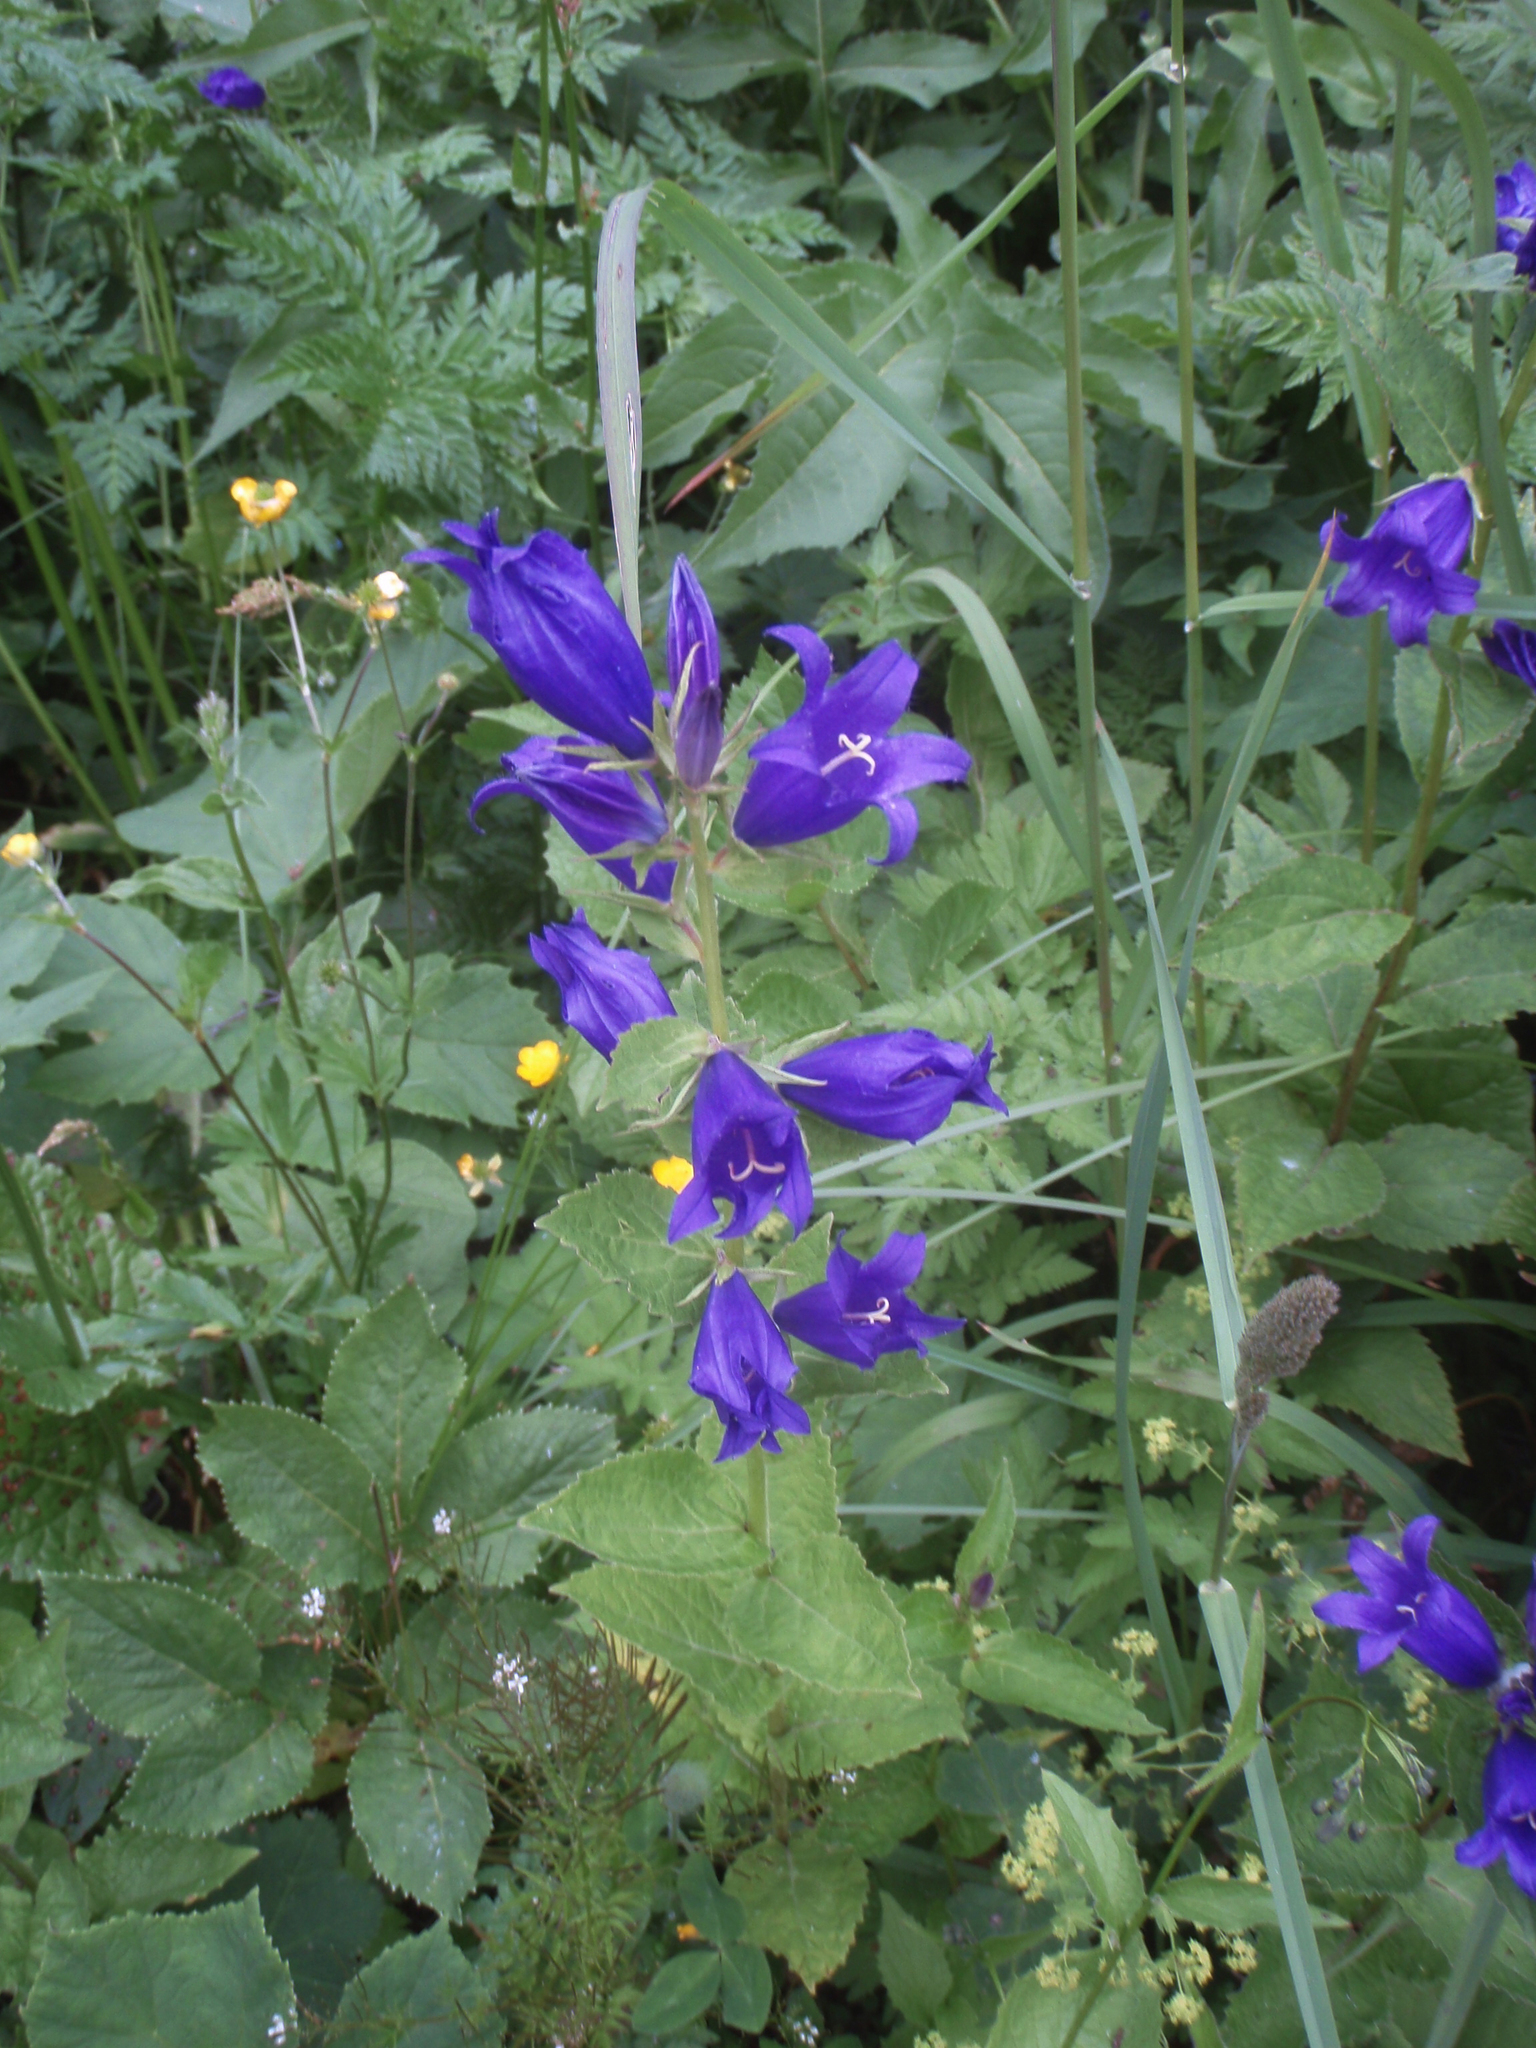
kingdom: Plantae
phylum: Tracheophyta
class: Magnoliopsida
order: Asterales
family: Campanulaceae
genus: Campanula
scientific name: Campanula latifolia
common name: Giant bellflower
